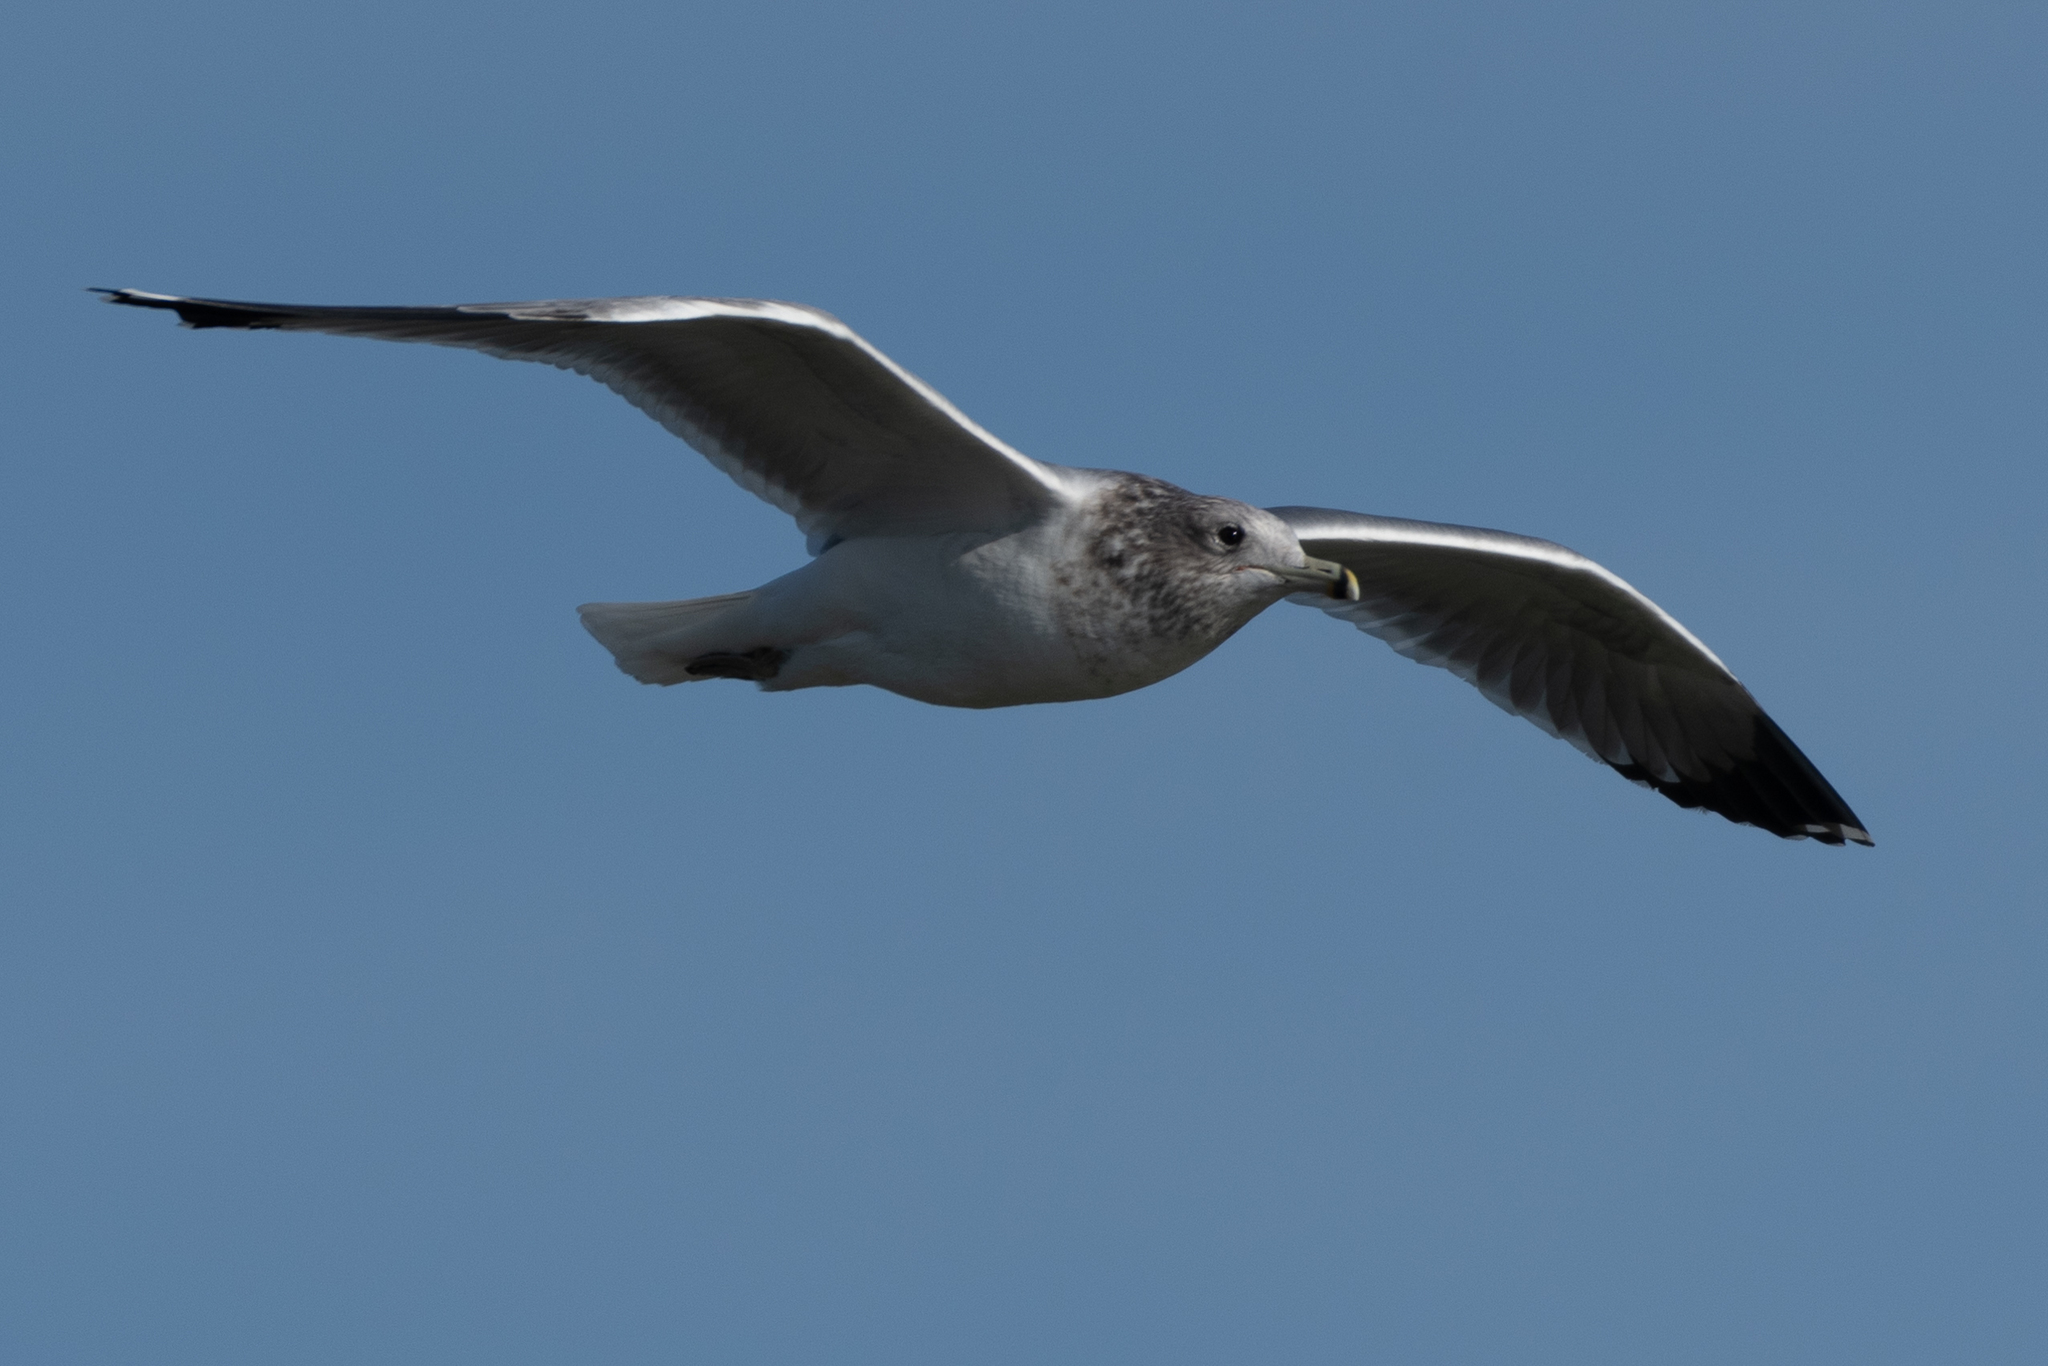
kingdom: Animalia
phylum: Chordata
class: Aves
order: Charadriiformes
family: Laridae
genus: Larus
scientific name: Larus californicus
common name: California gull
